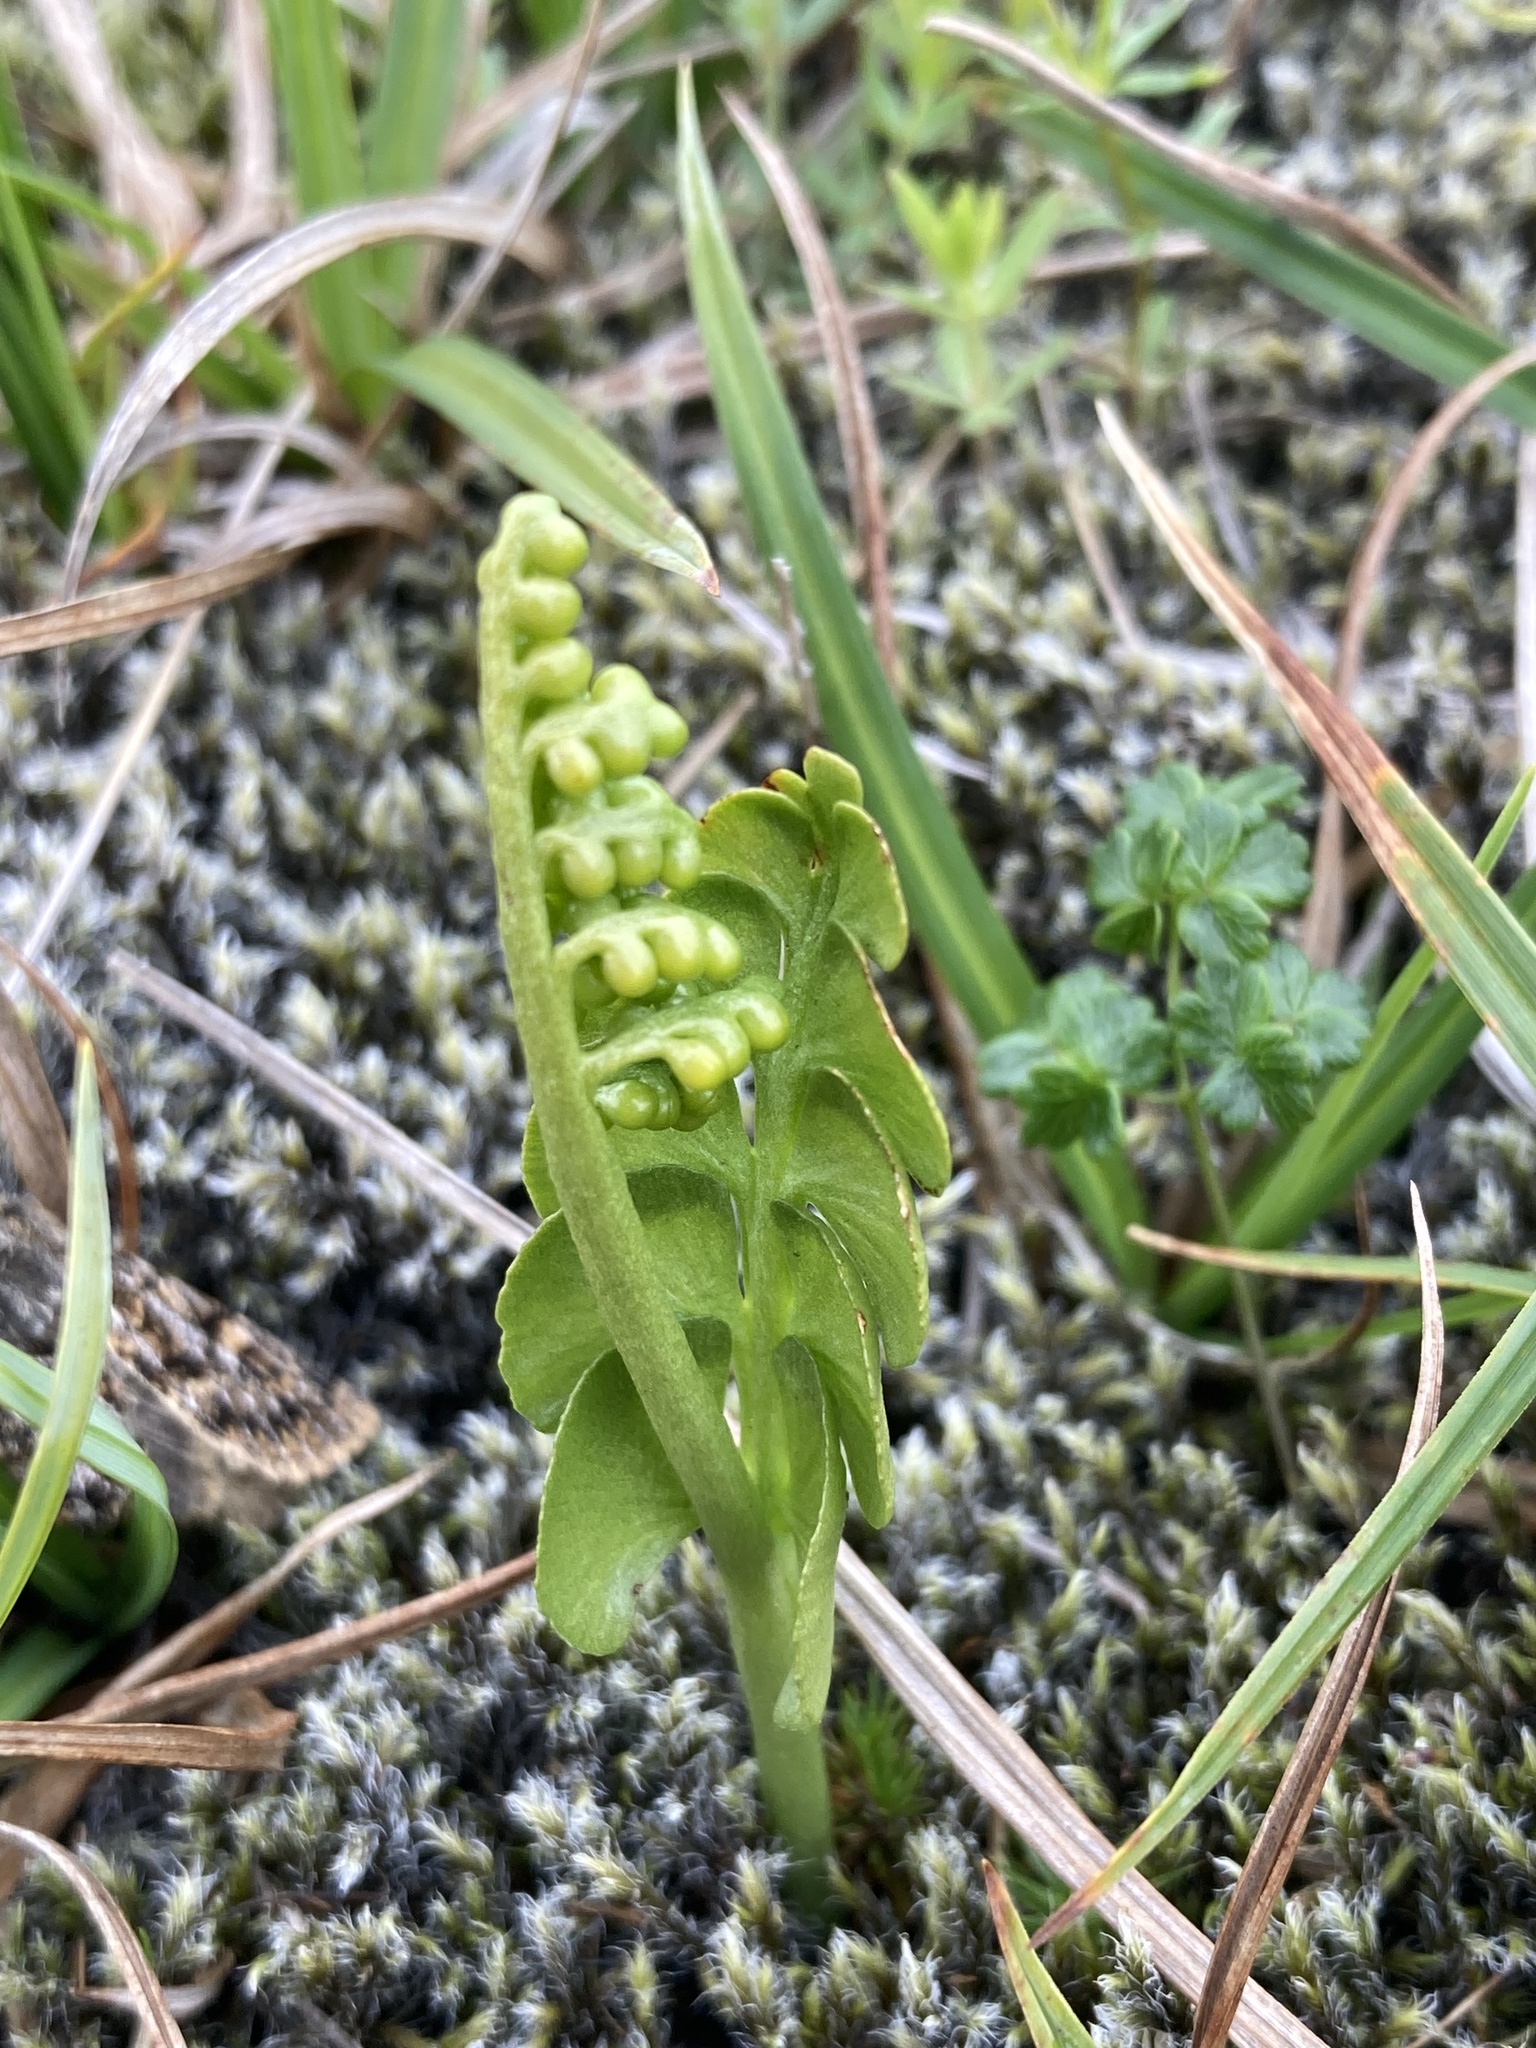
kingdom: Plantae
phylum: Tracheophyta
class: Polypodiopsida
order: Ophioglossales
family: Ophioglossaceae
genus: Botrychium
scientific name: Botrychium lunaria
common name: Moonwort
